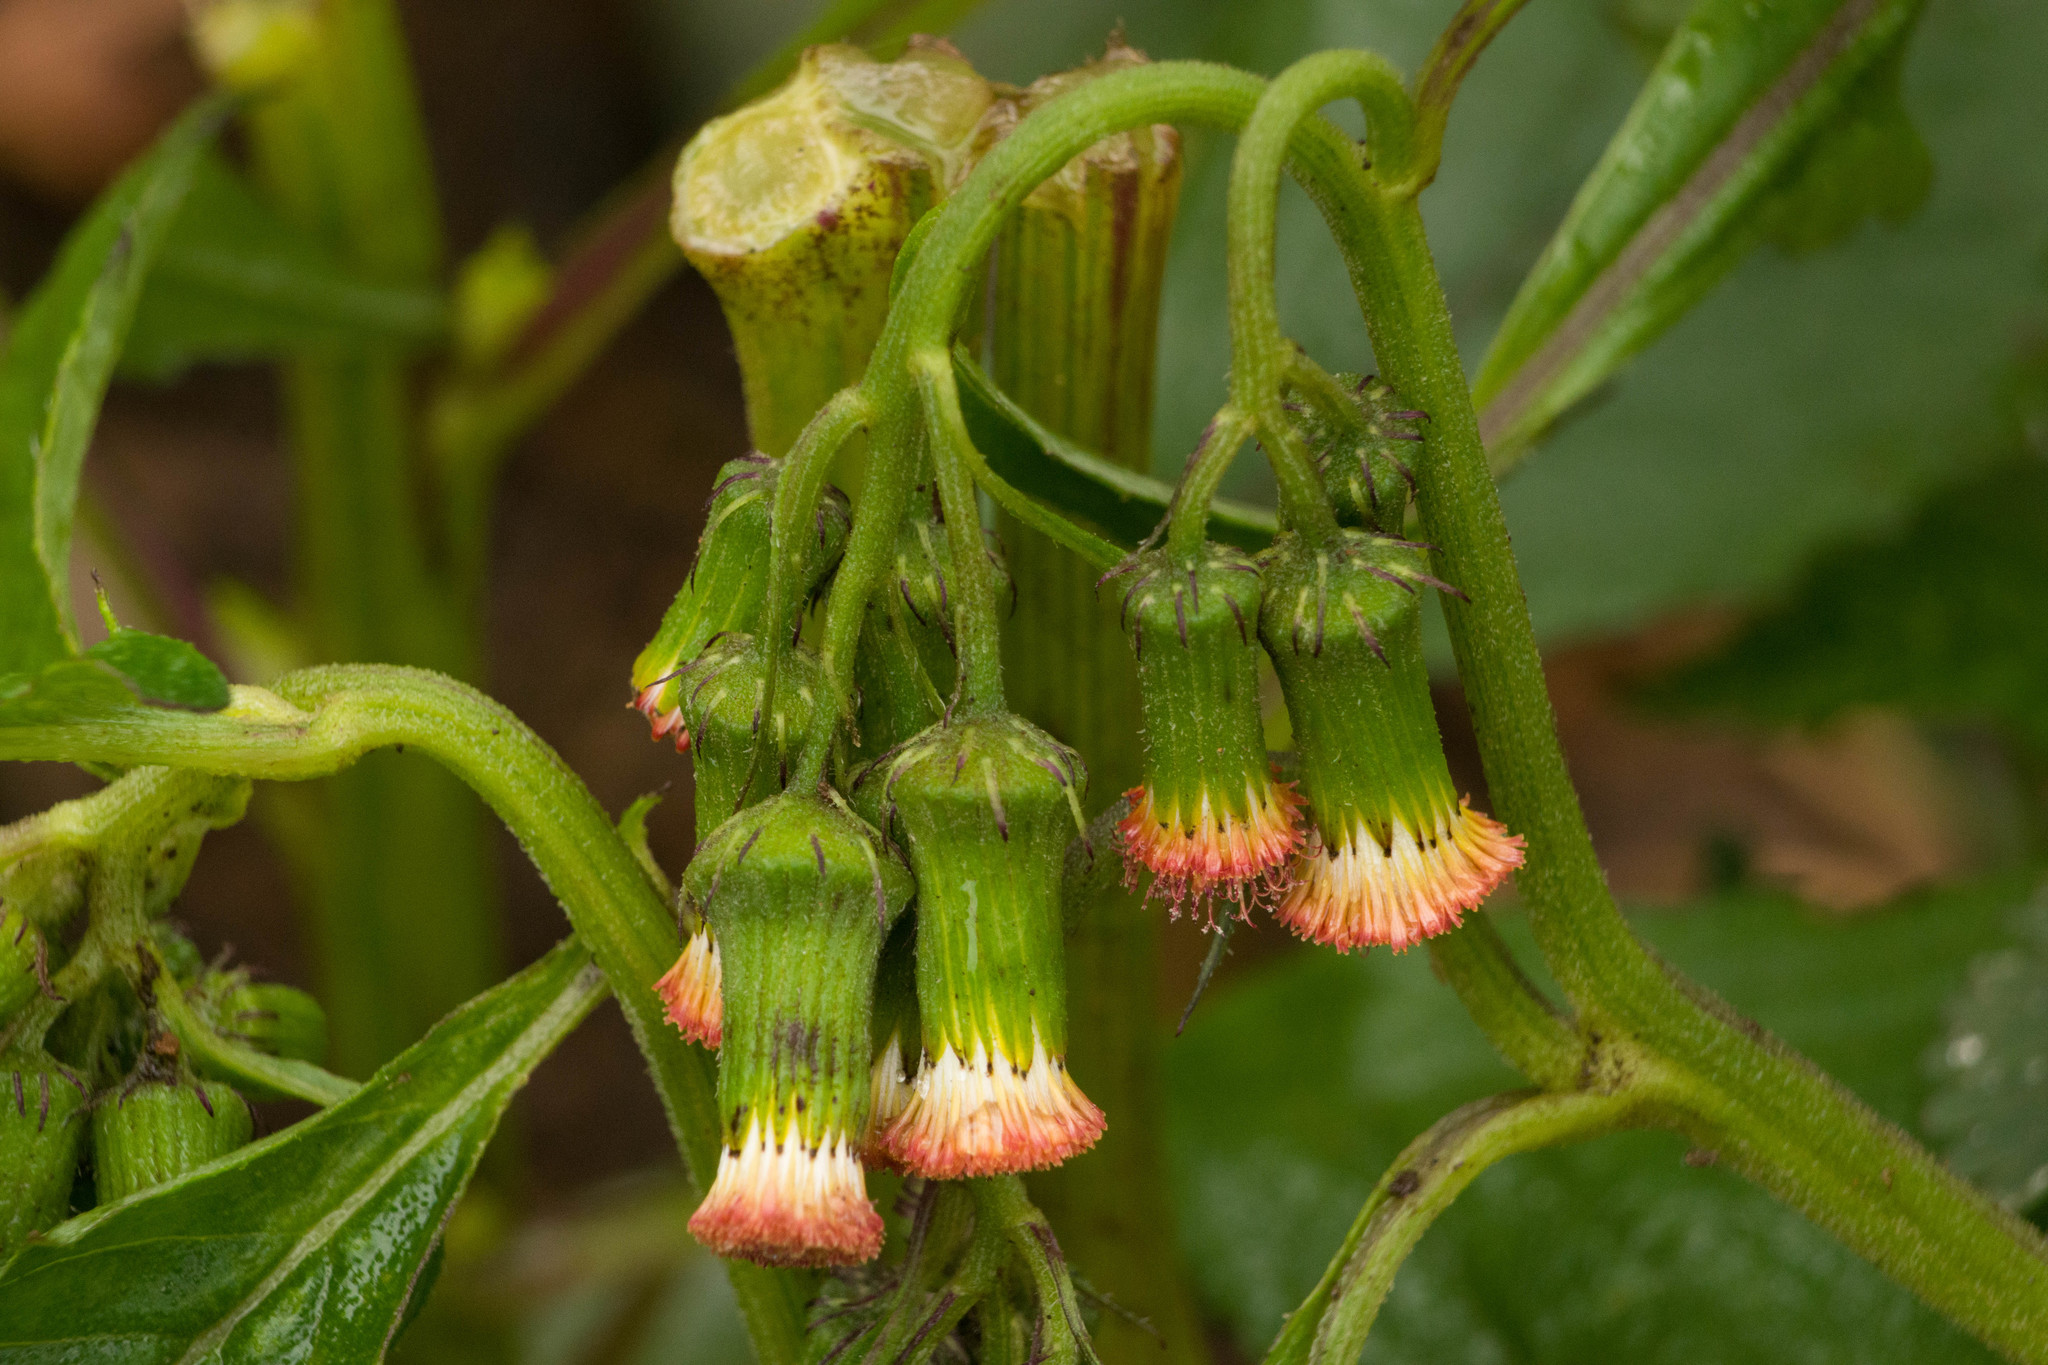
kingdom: Plantae
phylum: Tracheophyta
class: Magnoliopsida
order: Asterales
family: Asteraceae
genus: Crassocephalum
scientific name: Crassocephalum crepidioides
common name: Redflower ragleaf
